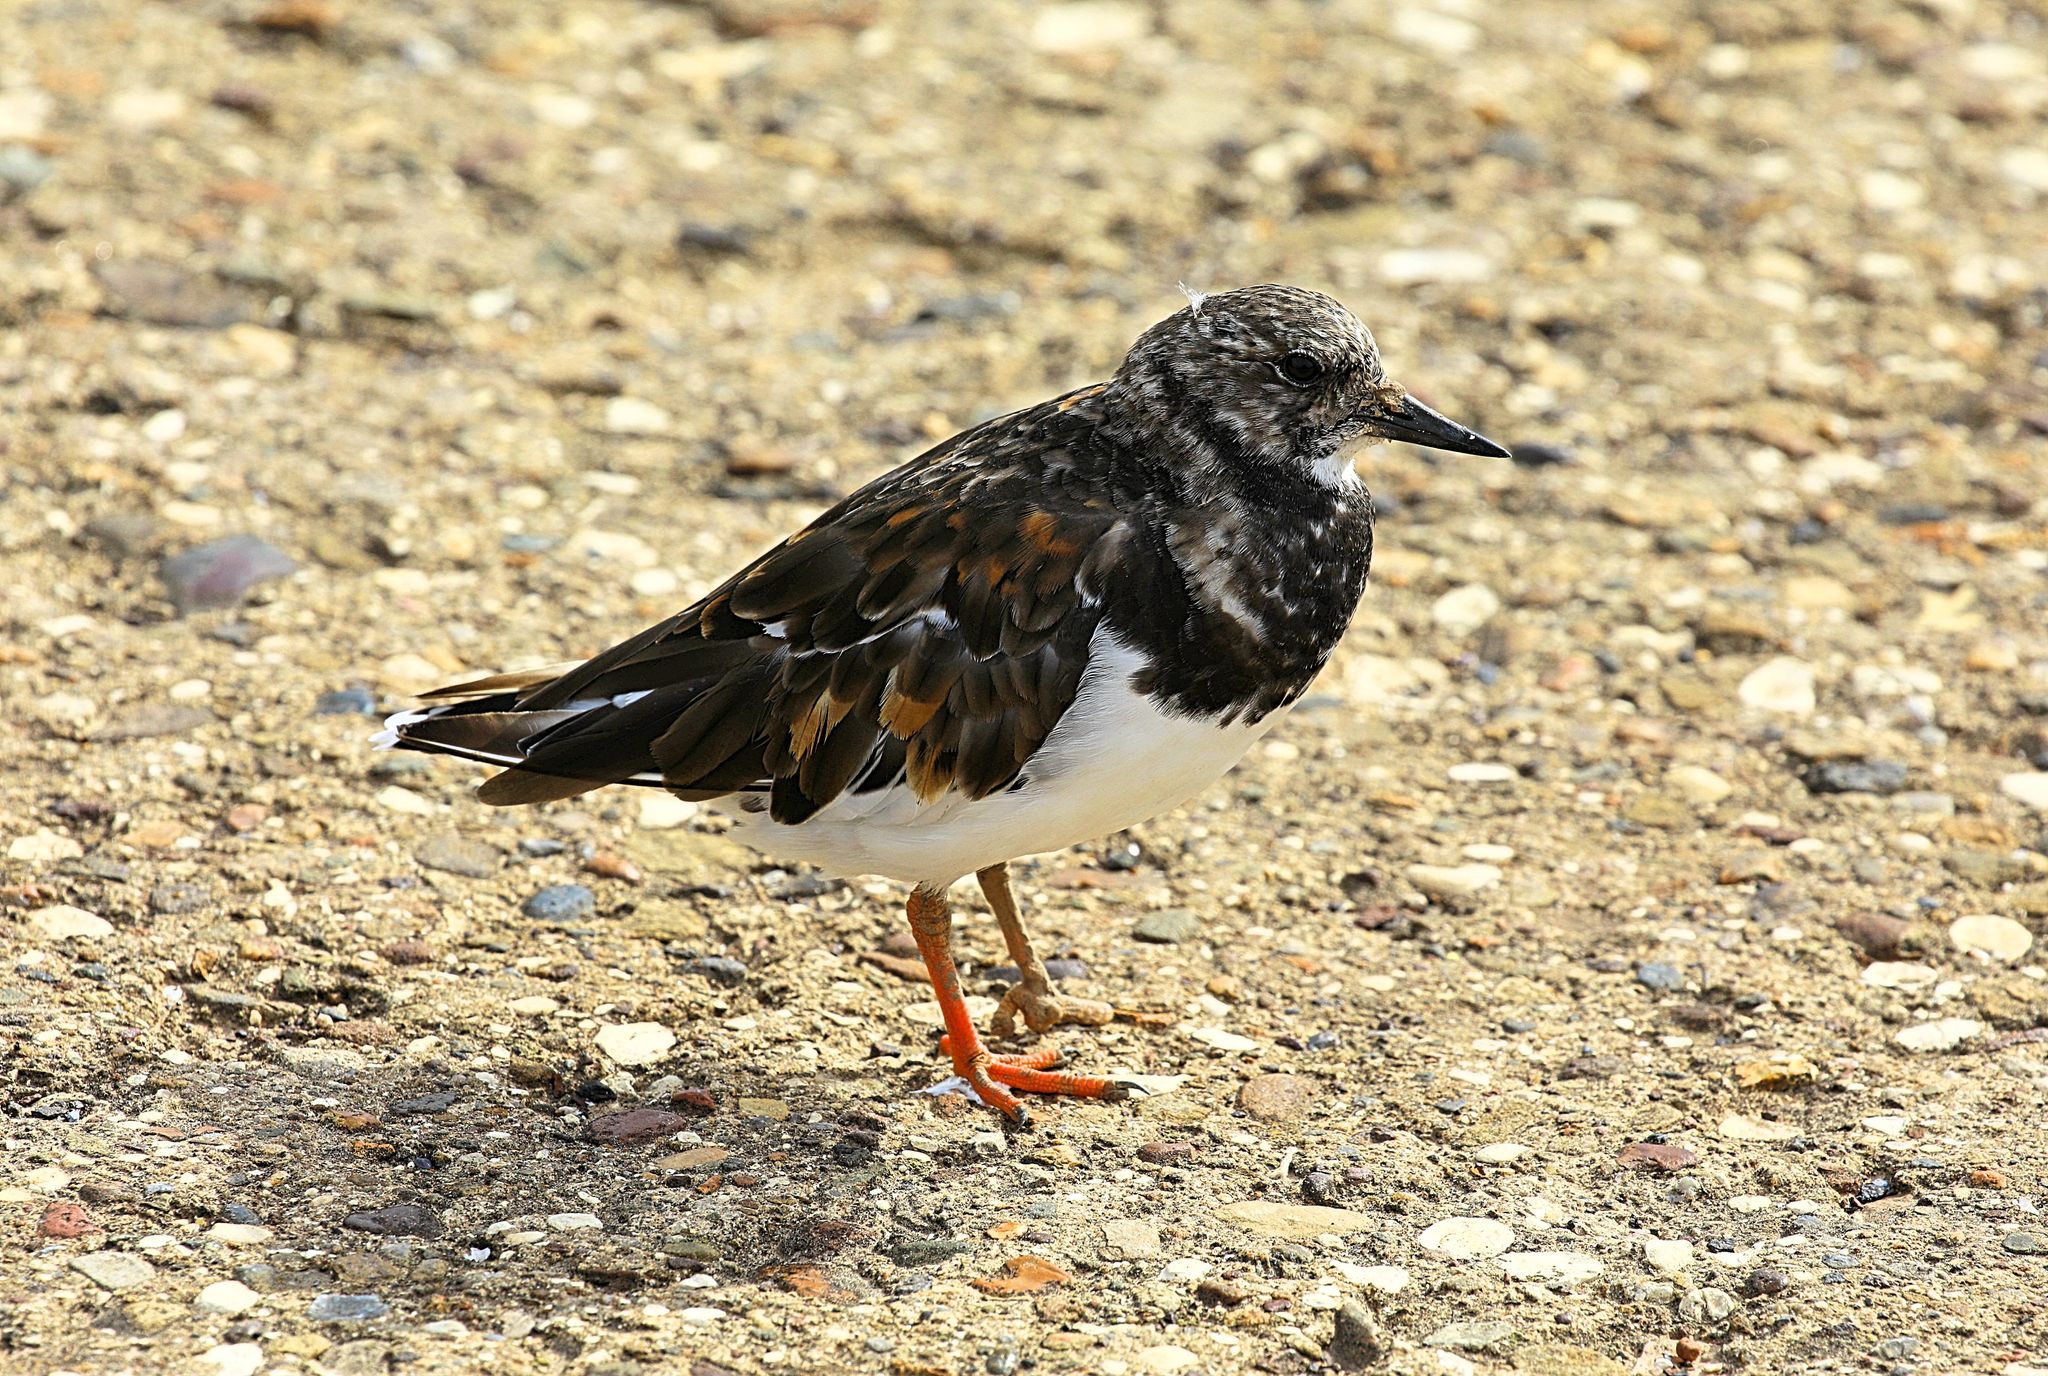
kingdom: Animalia
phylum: Chordata
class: Aves
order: Charadriiformes
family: Scolopacidae
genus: Arenaria
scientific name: Arenaria interpres
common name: Ruddy turnstone
